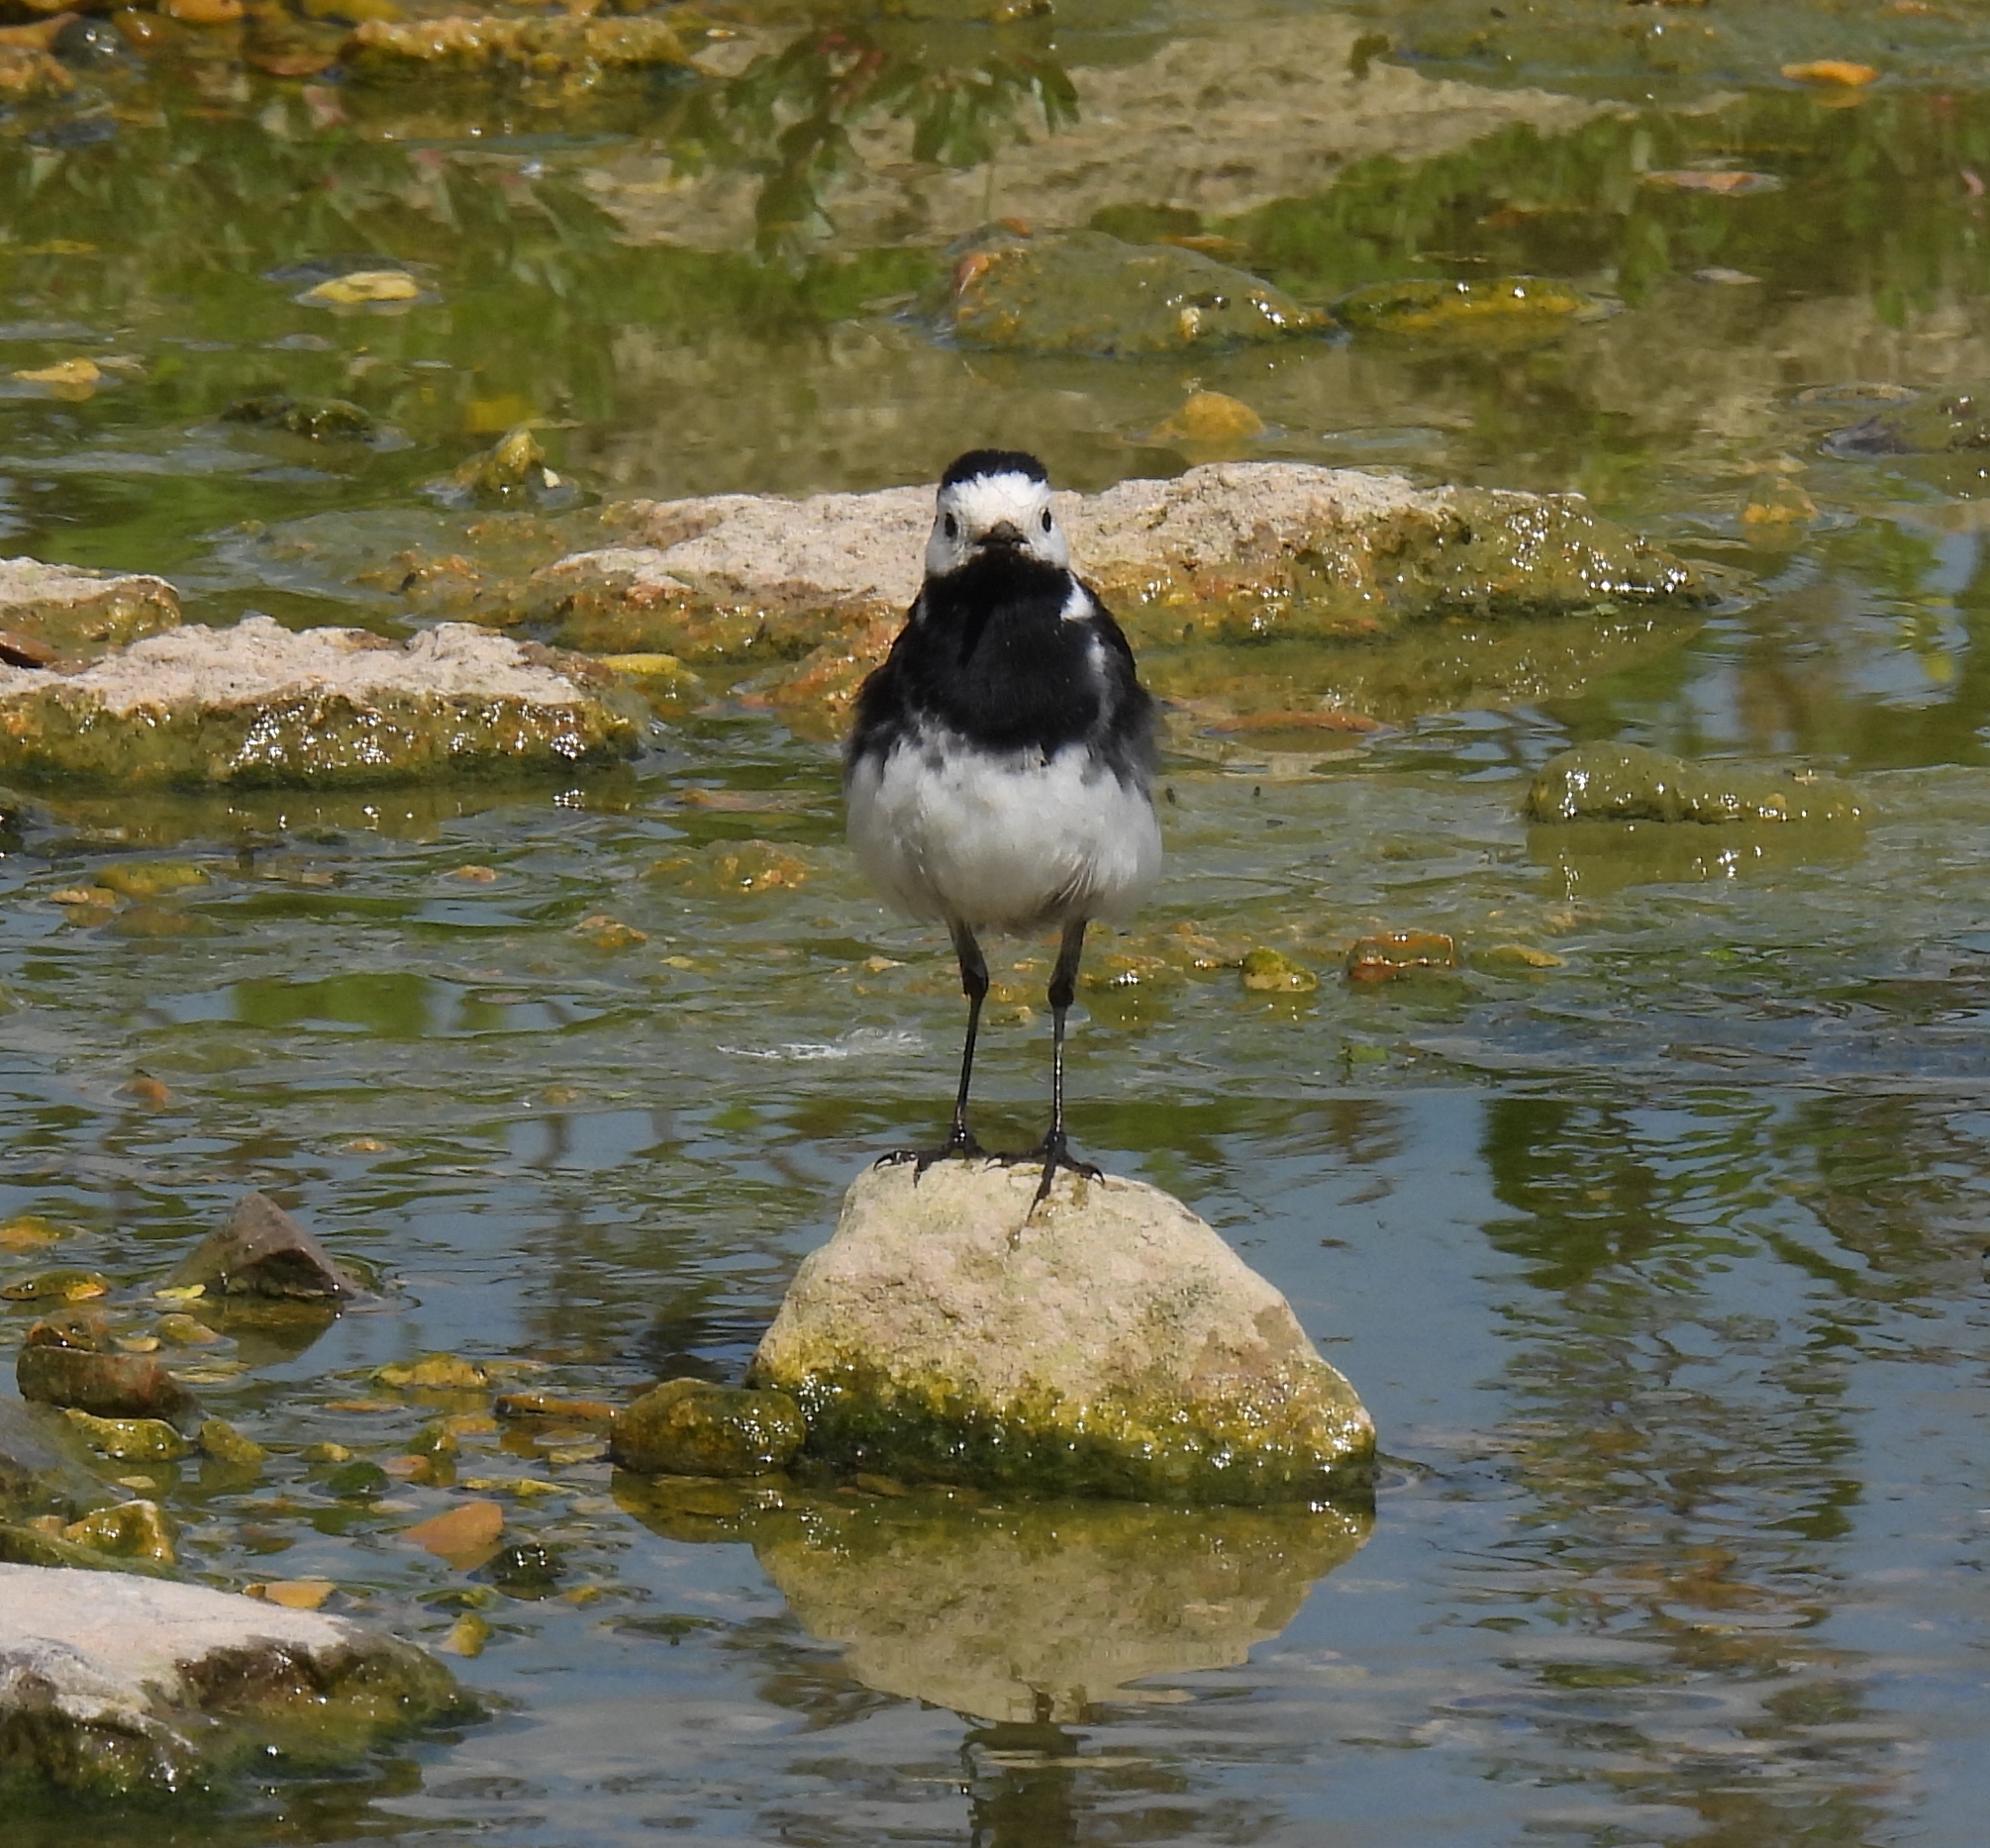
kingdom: Animalia
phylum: Chordata
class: Aves
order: Passeriformes
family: Motacillidae
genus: Motacilla
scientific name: Motacilla alba
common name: White wagtail
